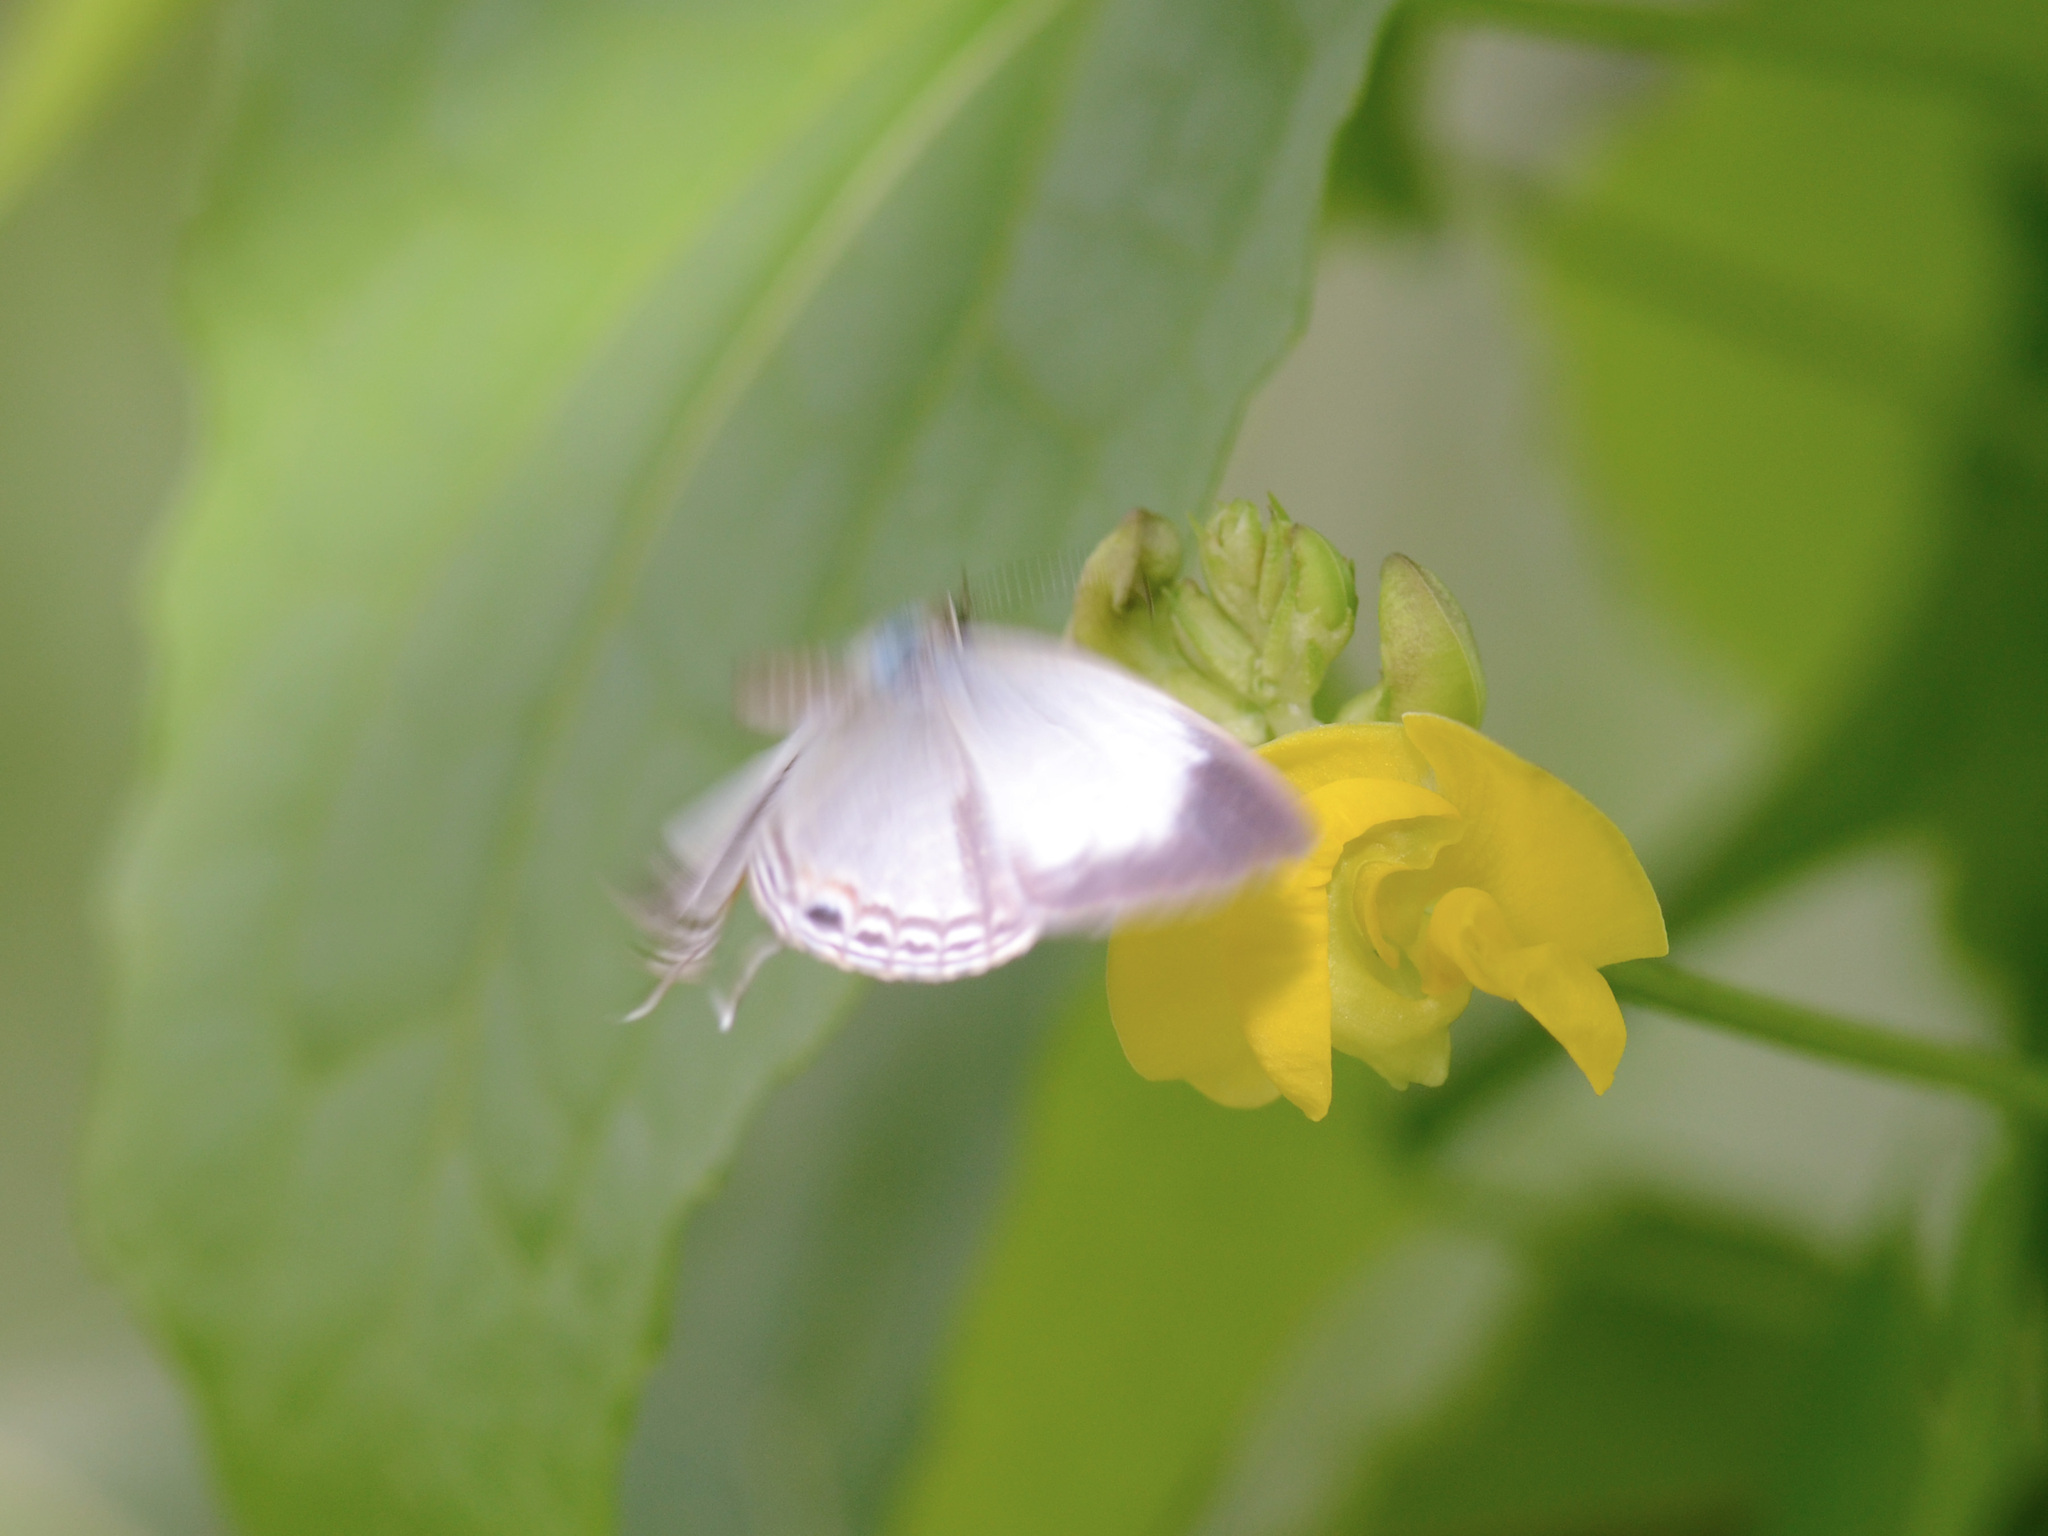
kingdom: Animalia
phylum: Arthropoda
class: Insecta
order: Lepidoptera
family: Lycaenidae
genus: Jamides
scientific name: Jamides celeno
